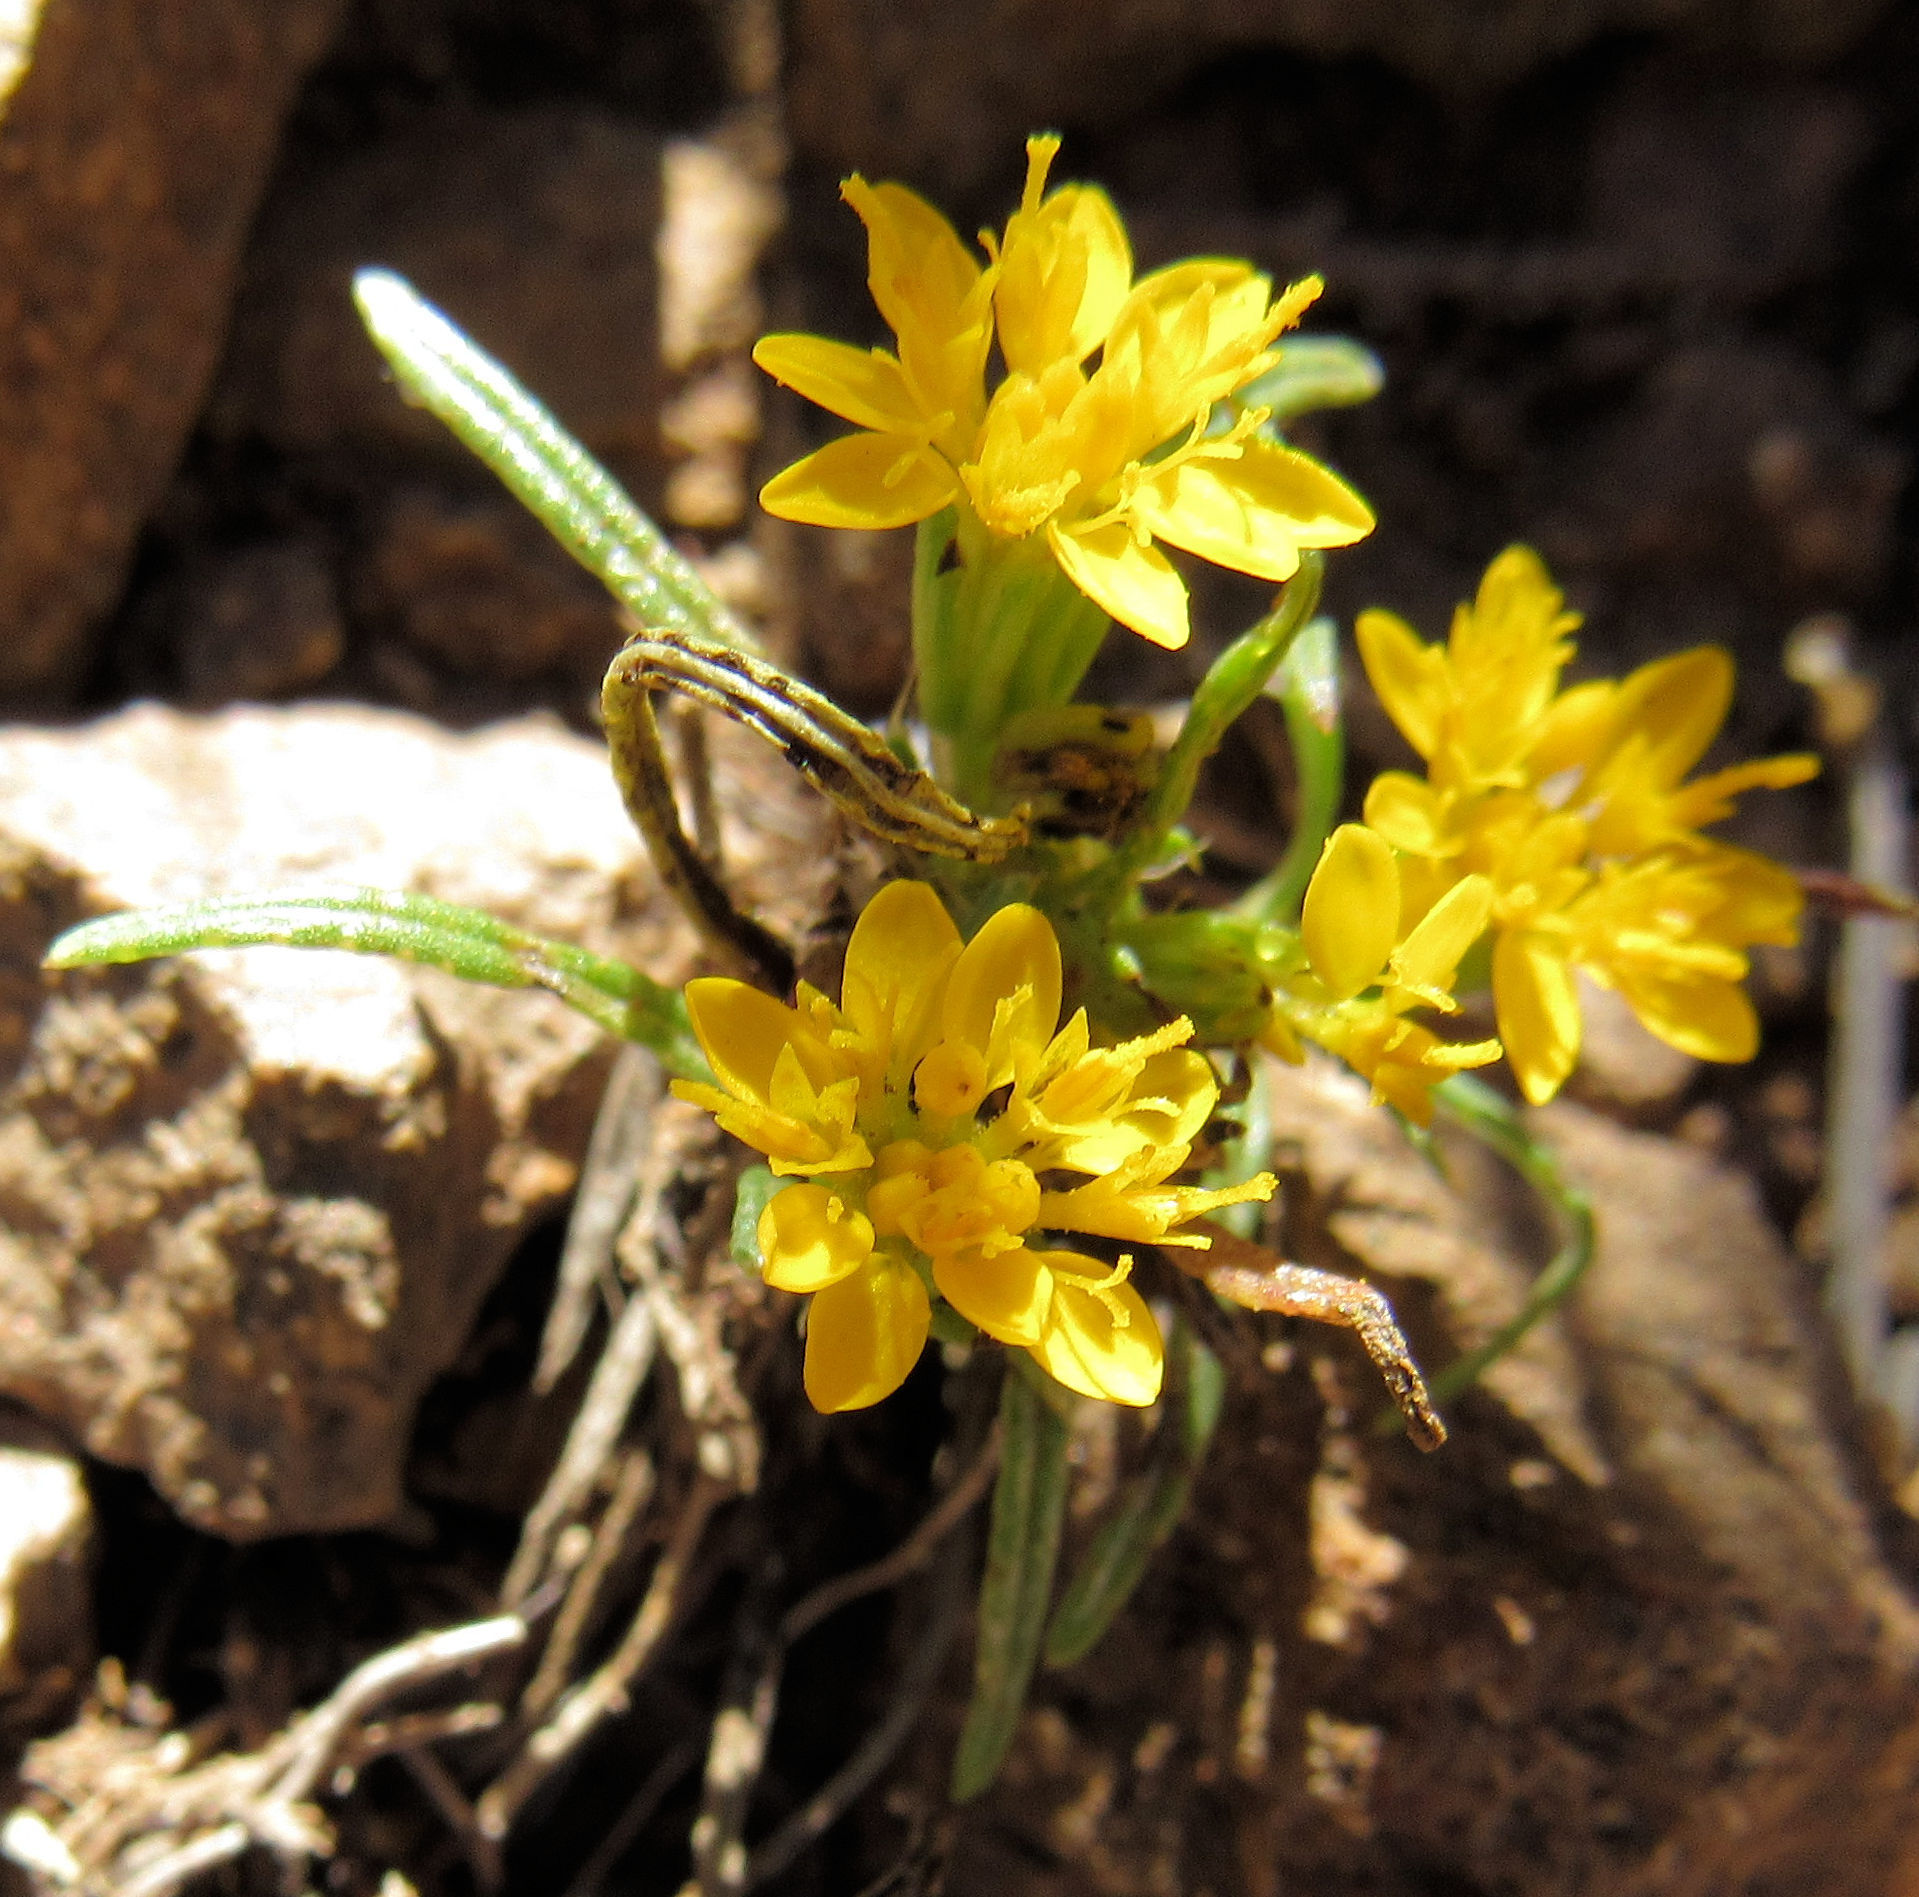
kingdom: Plantae
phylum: Tracheophyta
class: Magnoliopsida
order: Asterales
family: Asteraceae
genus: Pectis
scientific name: Pectis angustifolia
